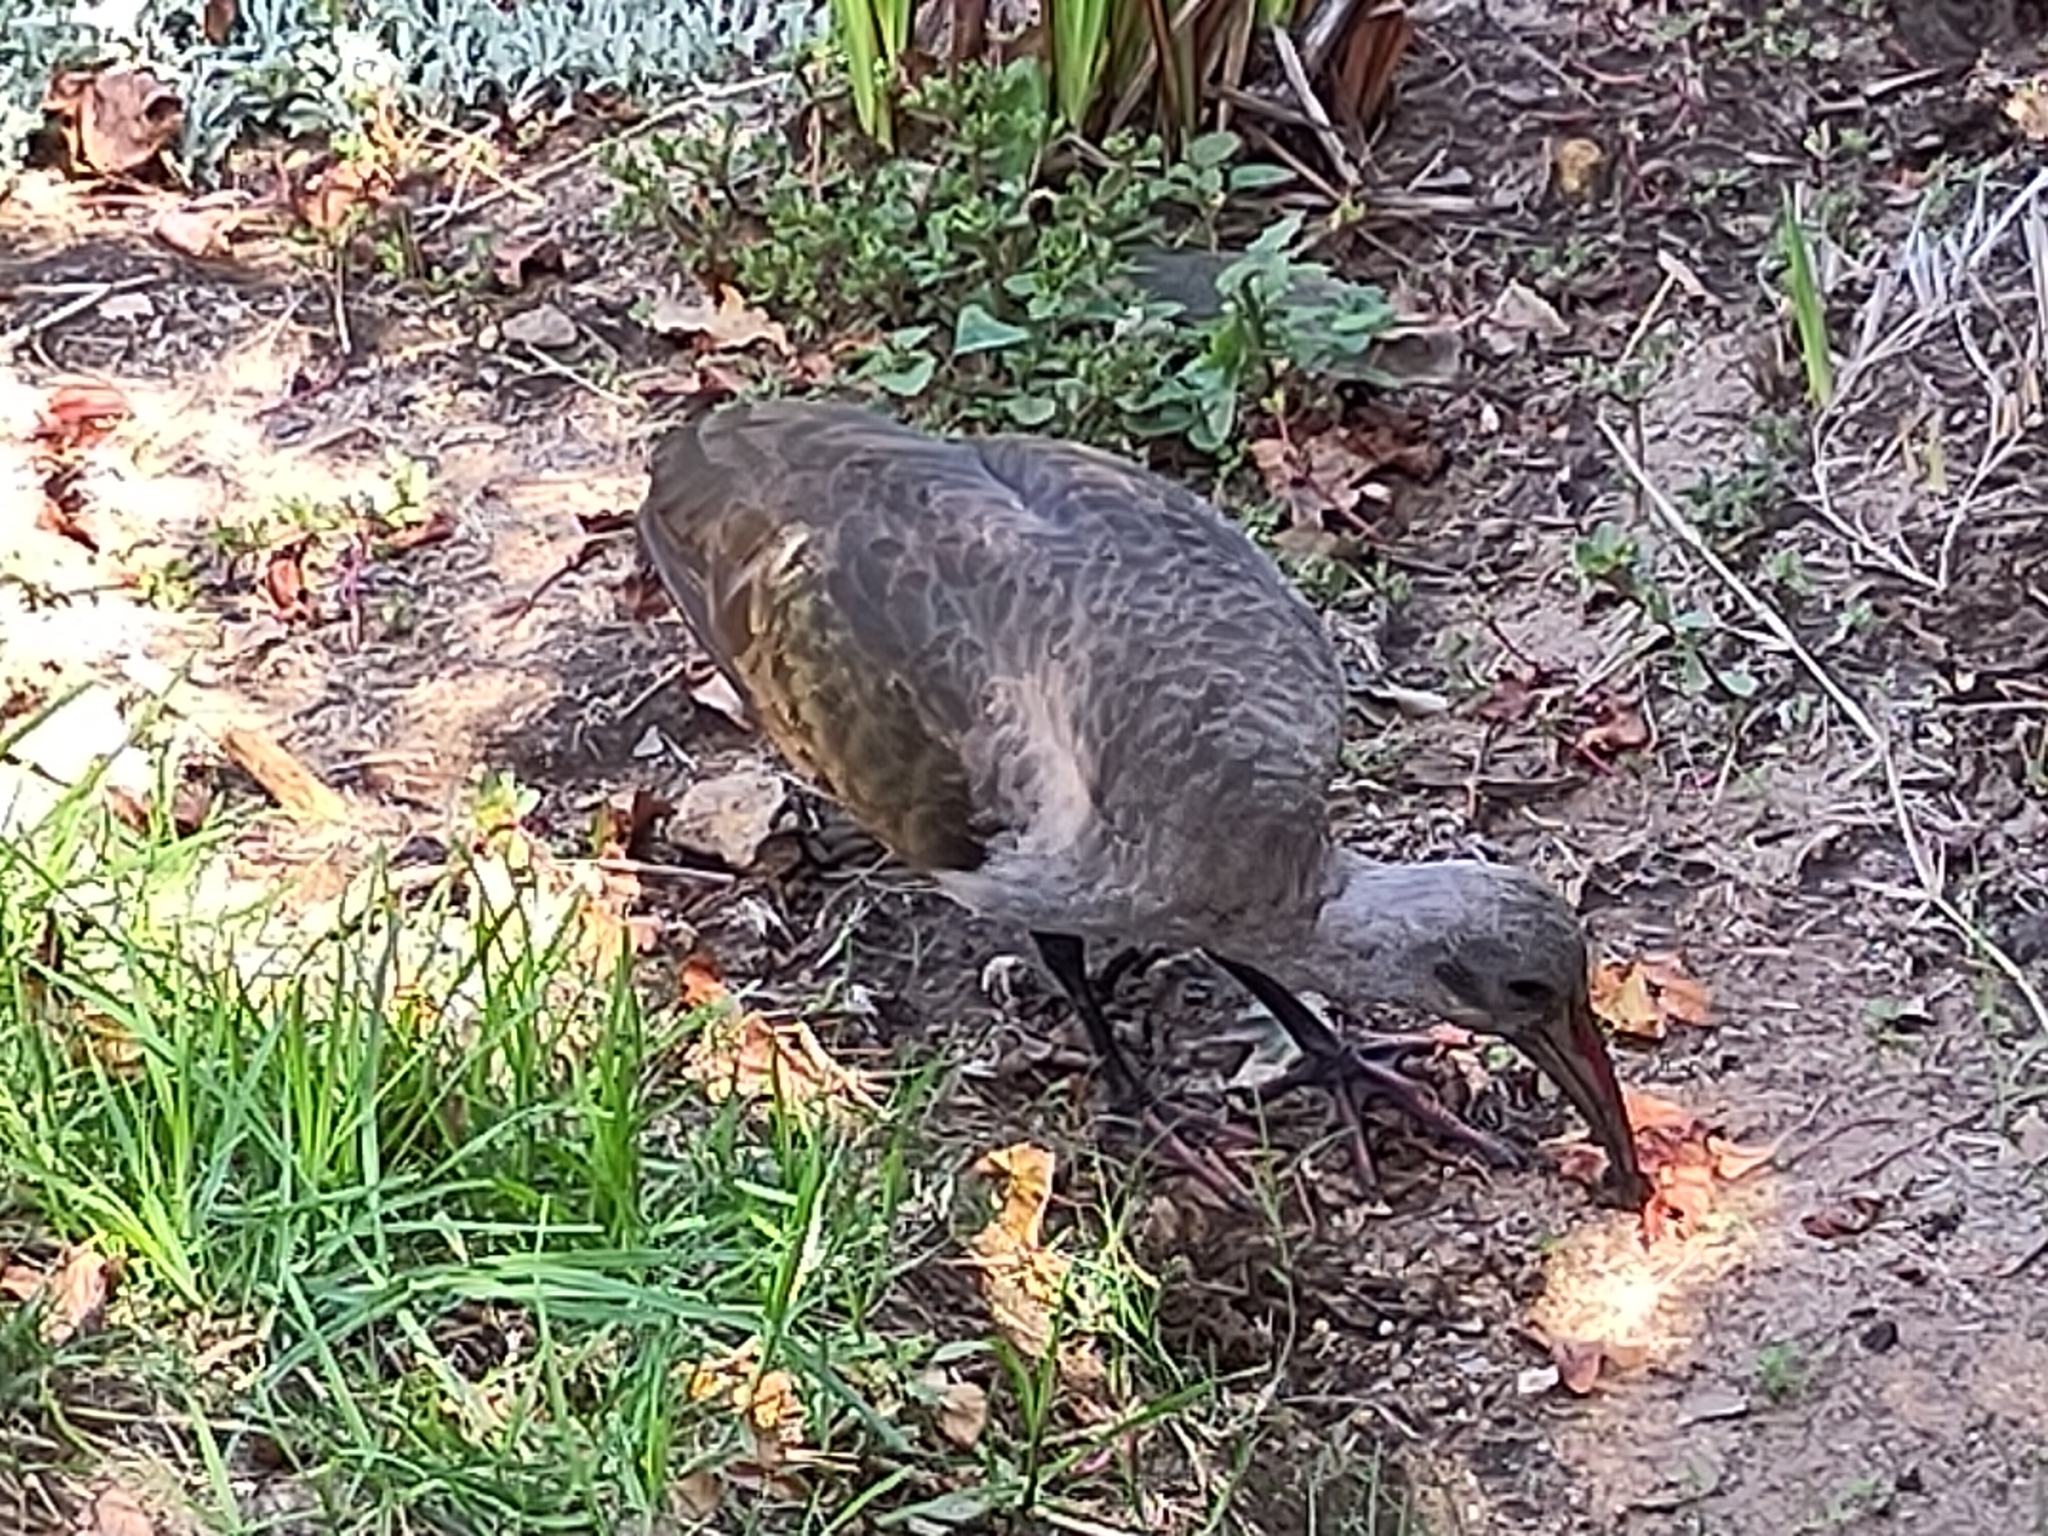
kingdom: Animalia
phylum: Chordata
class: Aves
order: Pelecaniformes
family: Threskiornithidae
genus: Bostrychia
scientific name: Bostrychia hagedash
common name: Hadada ibis
